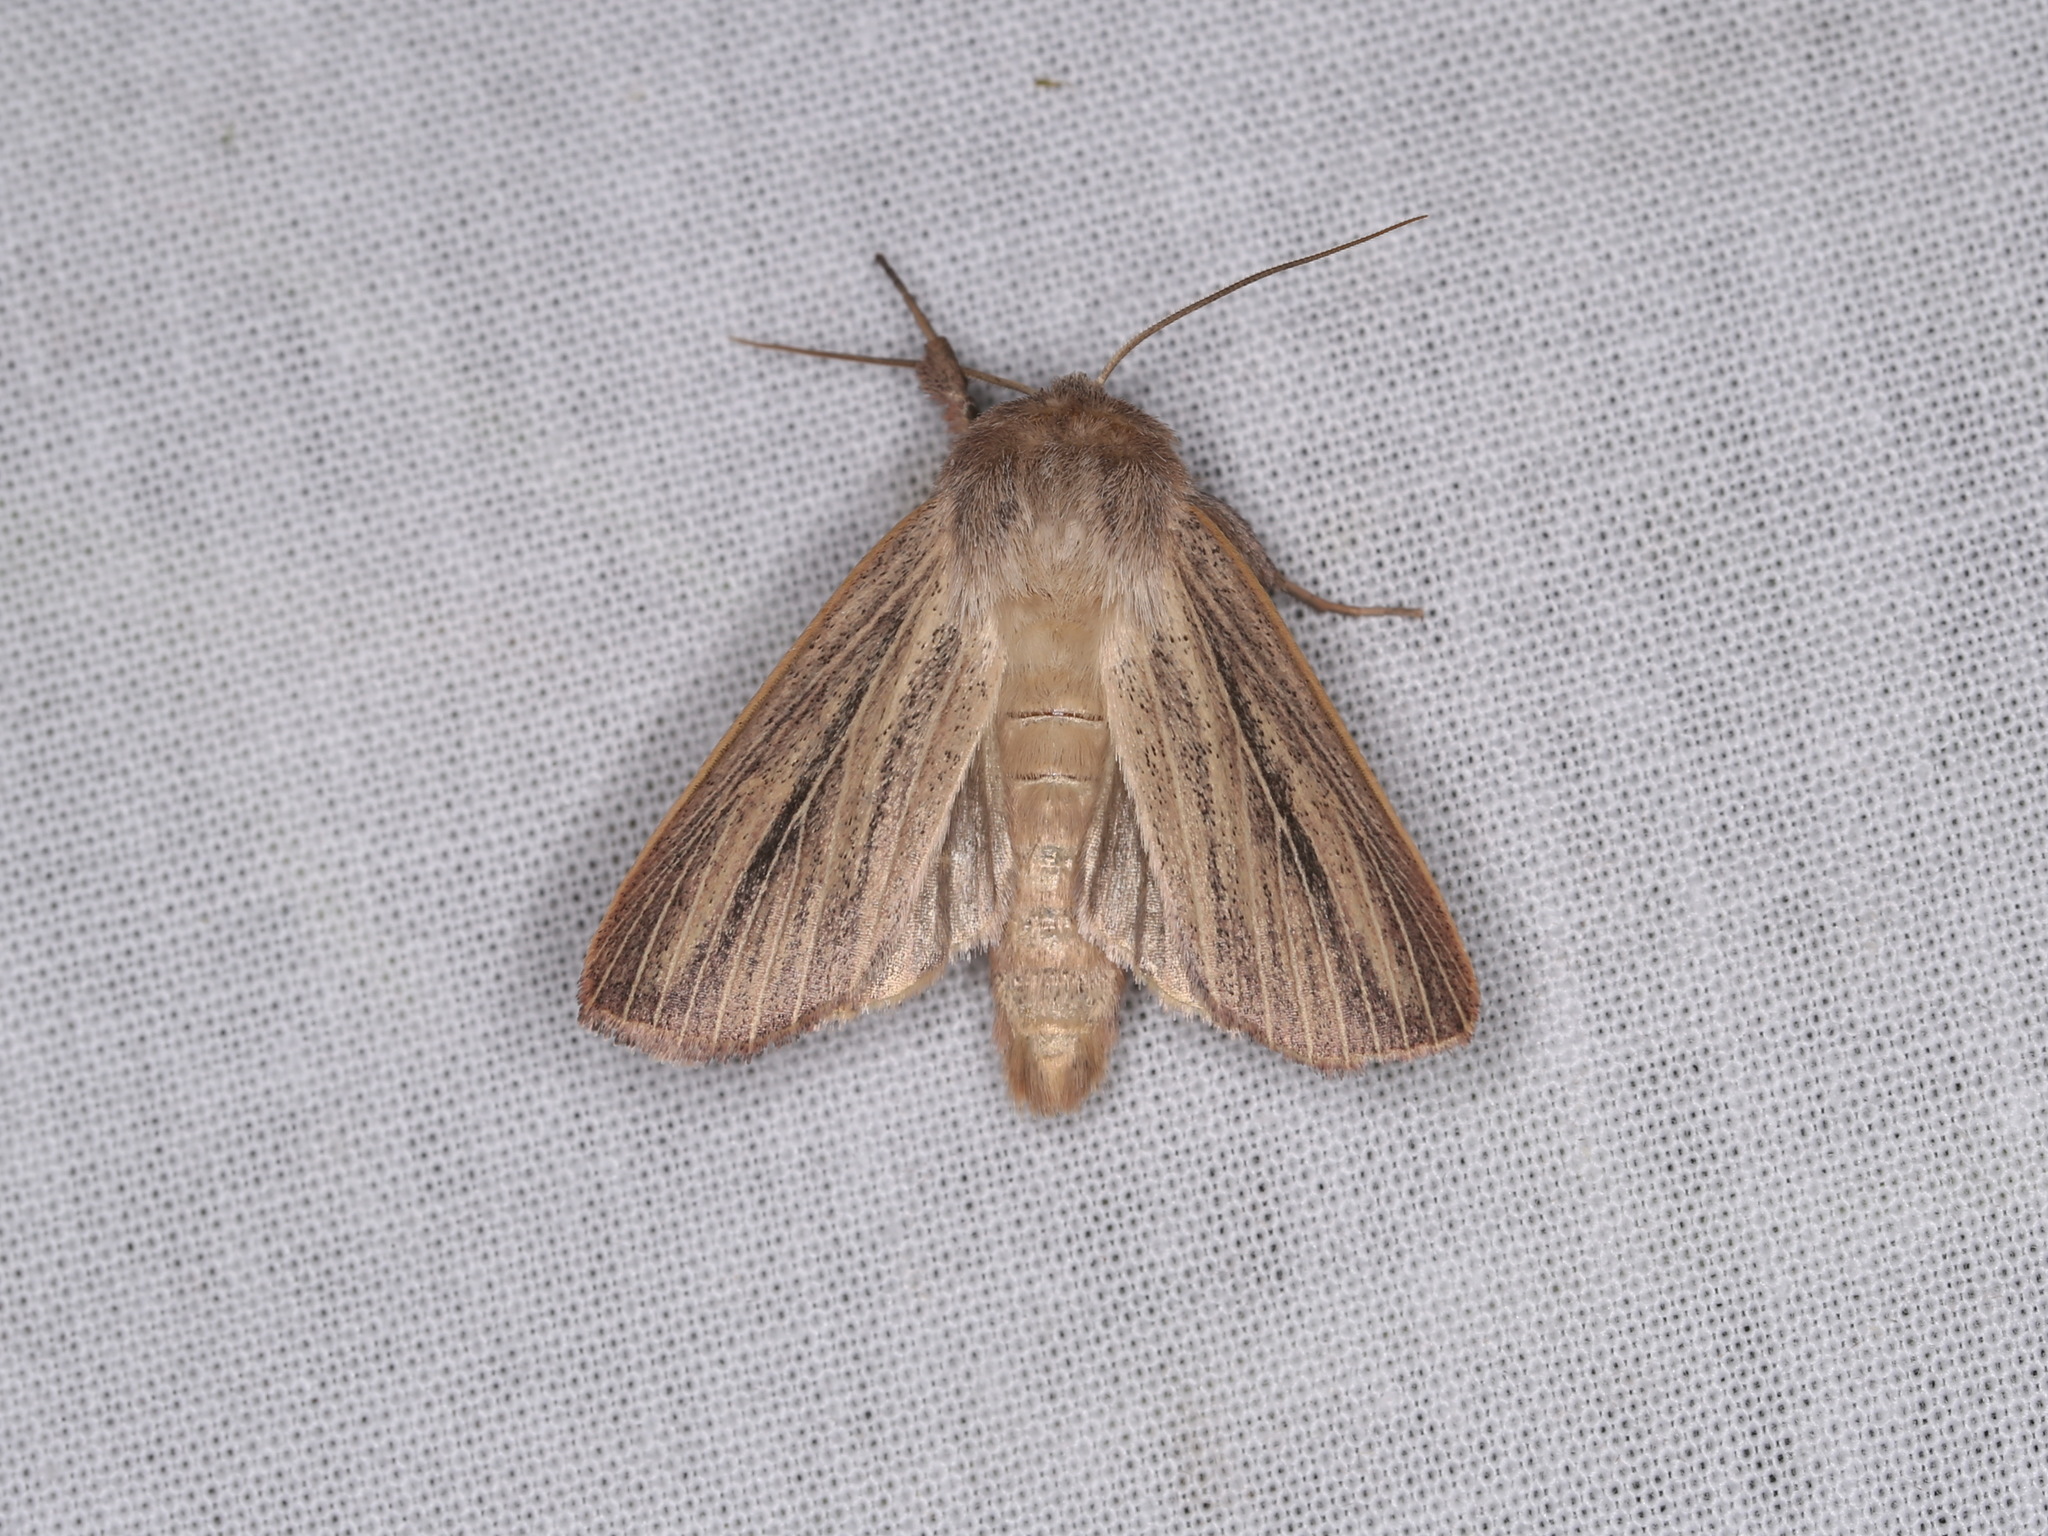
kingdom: Animalia
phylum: Arthropoda
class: Insecta
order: Lepidoptera
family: Noctuidae
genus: Mythimna
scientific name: Mythimna pudorina
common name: Striped wainscot
